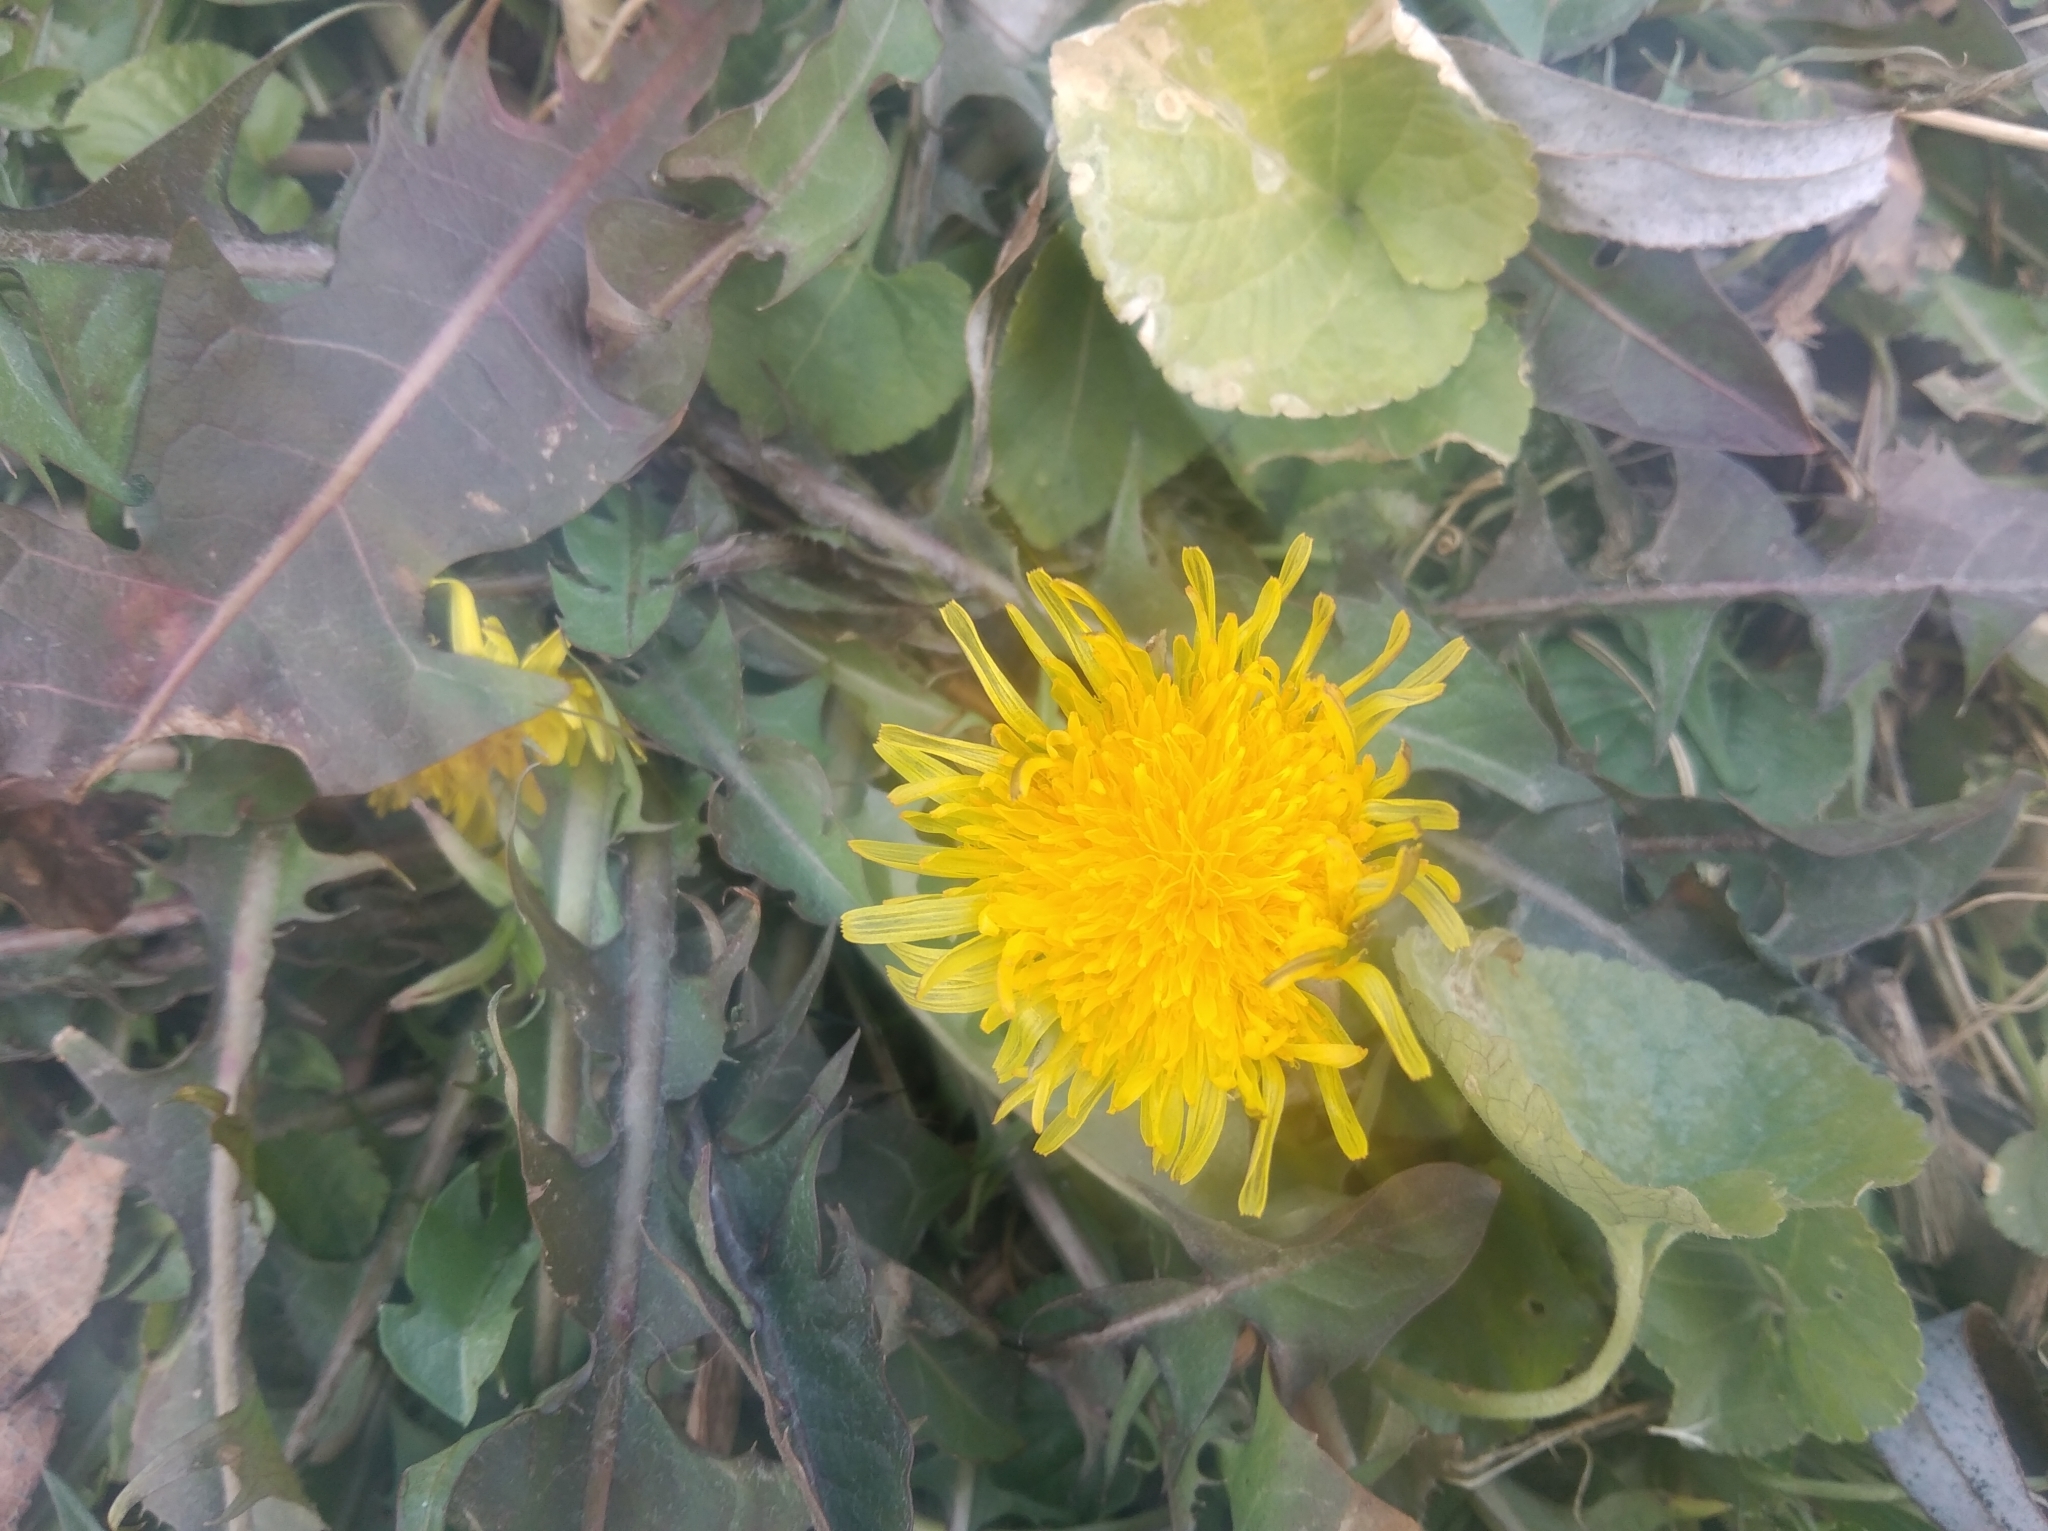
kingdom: Plantae
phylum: Tracheophyta
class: Magnoliopsida
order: Asterales
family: Asteraceae
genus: Taraxacum
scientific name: Taraxacum officinale
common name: Common dandelion
